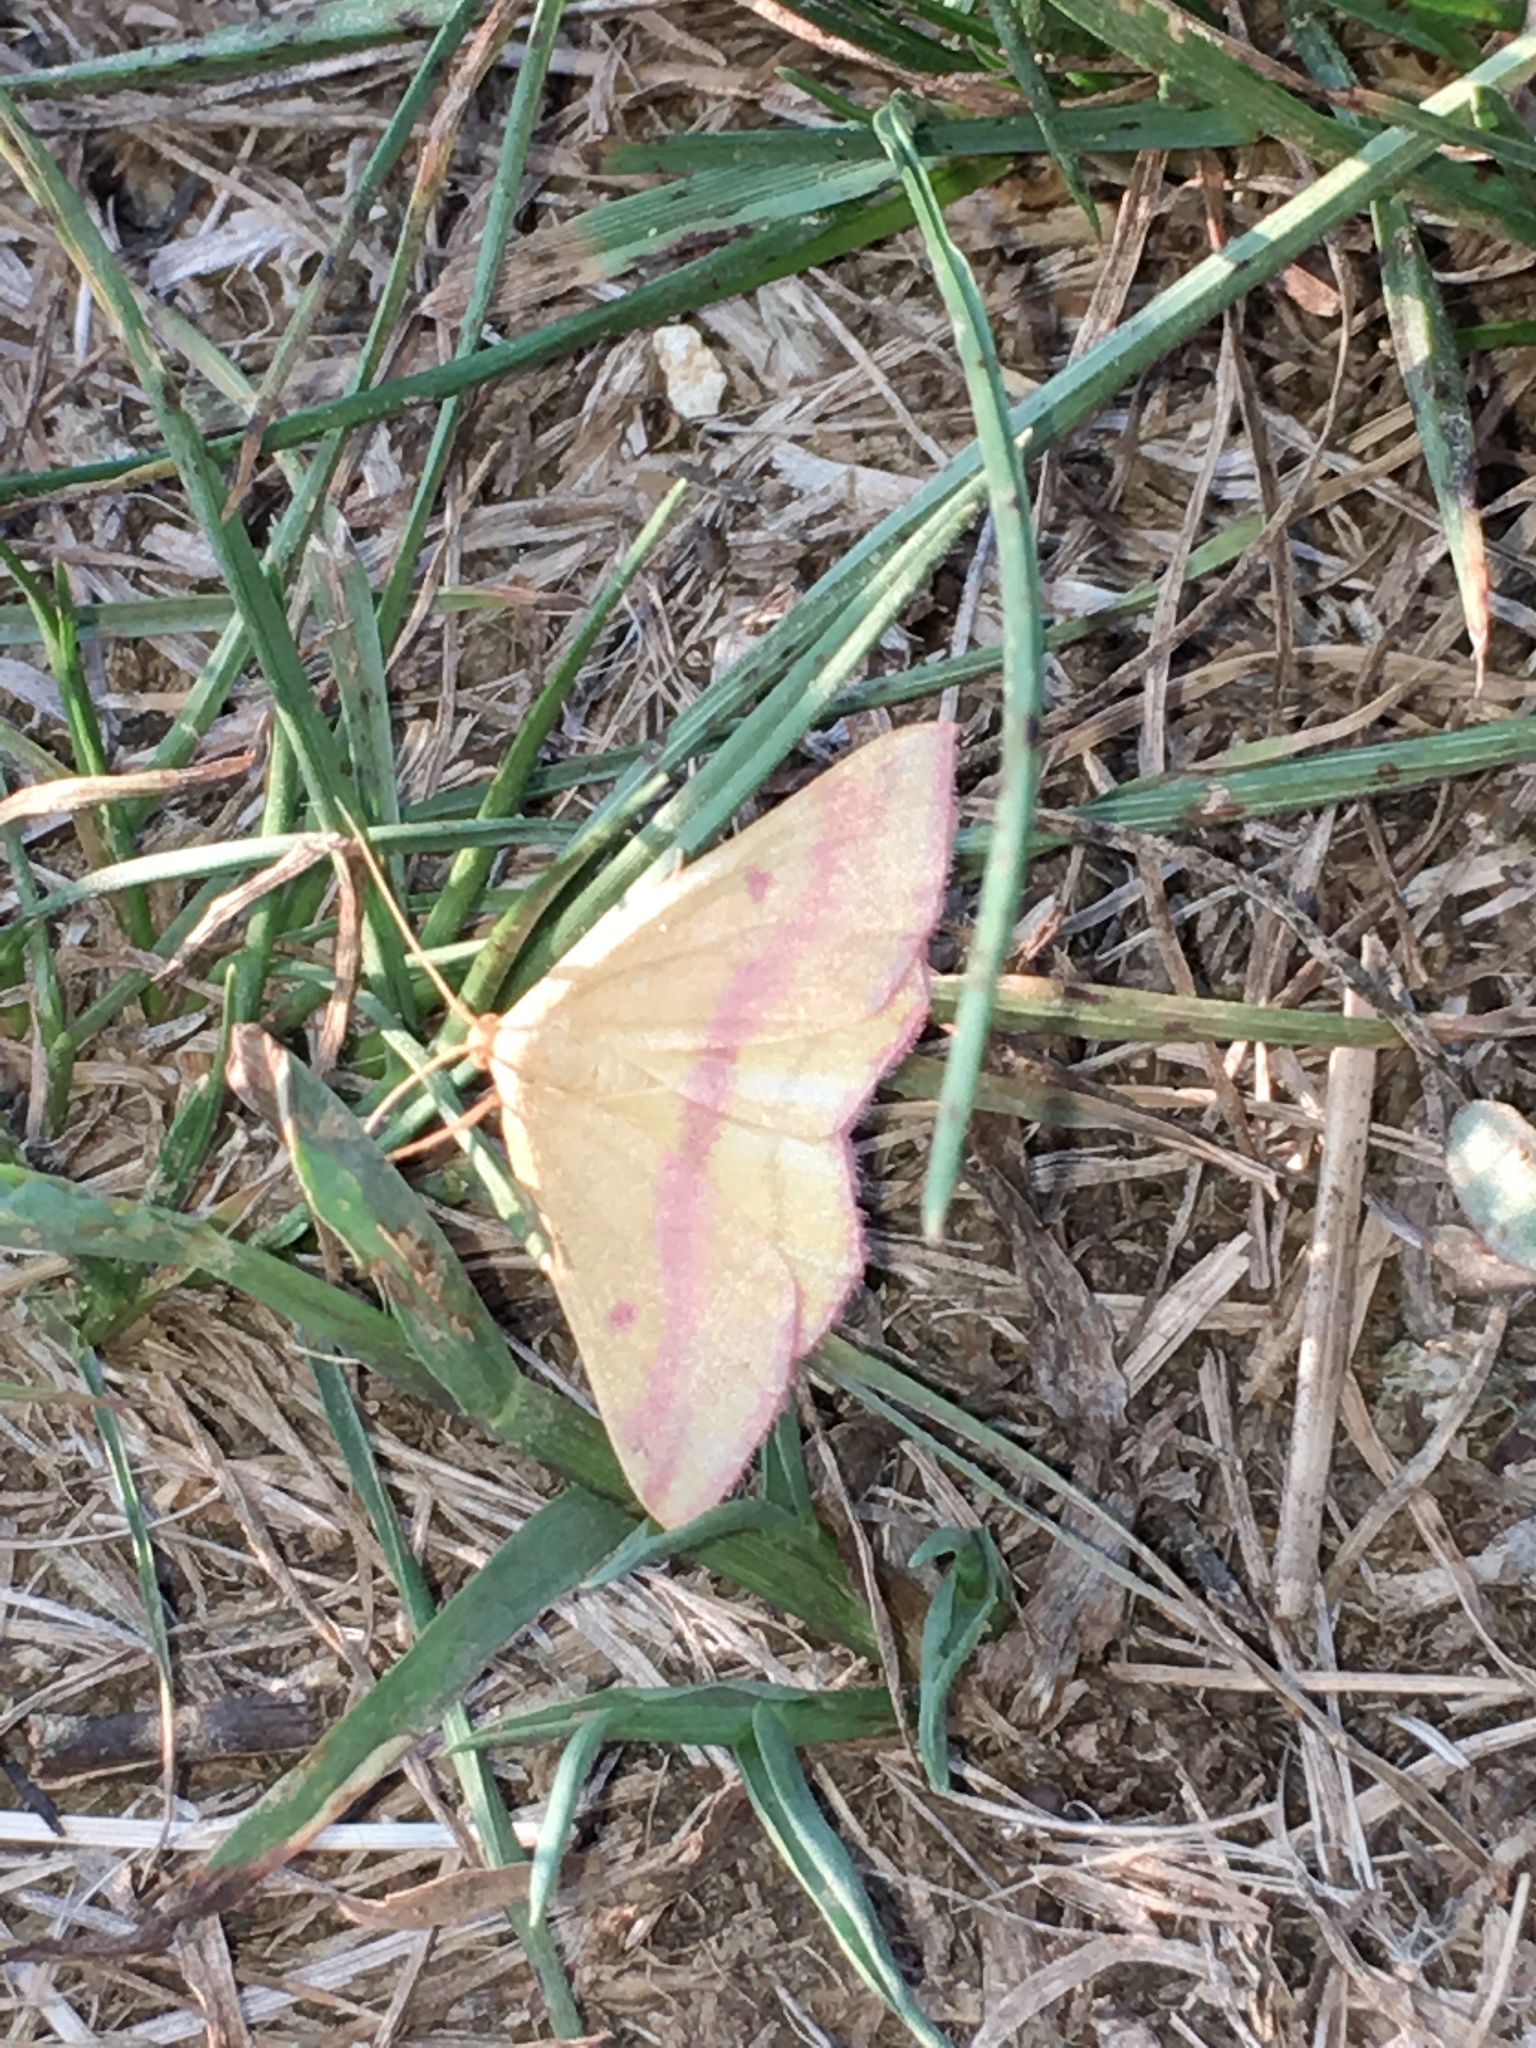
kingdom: Animalia
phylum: Arthropoda
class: Insecta
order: Lepidoptera
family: Geometridae
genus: Haematopis
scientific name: Haematopis grataria
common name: Chickweed geometer
